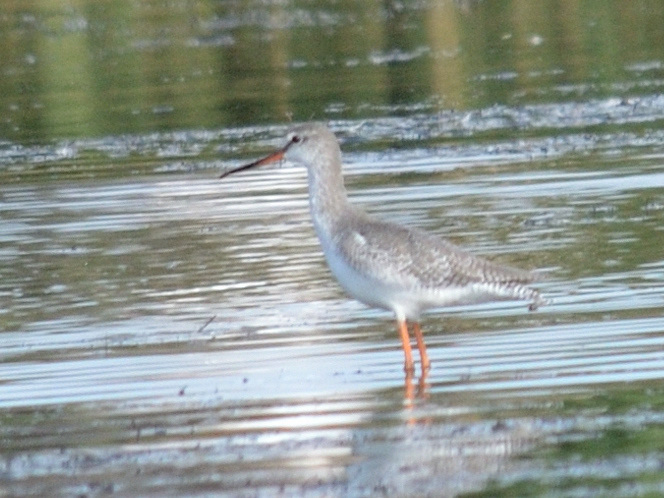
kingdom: Animalia
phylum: Chordata
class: Aves
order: Charadriiformes
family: Scolopacidae
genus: Tringa
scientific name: Tringa erythropus
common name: Spotted redshank
